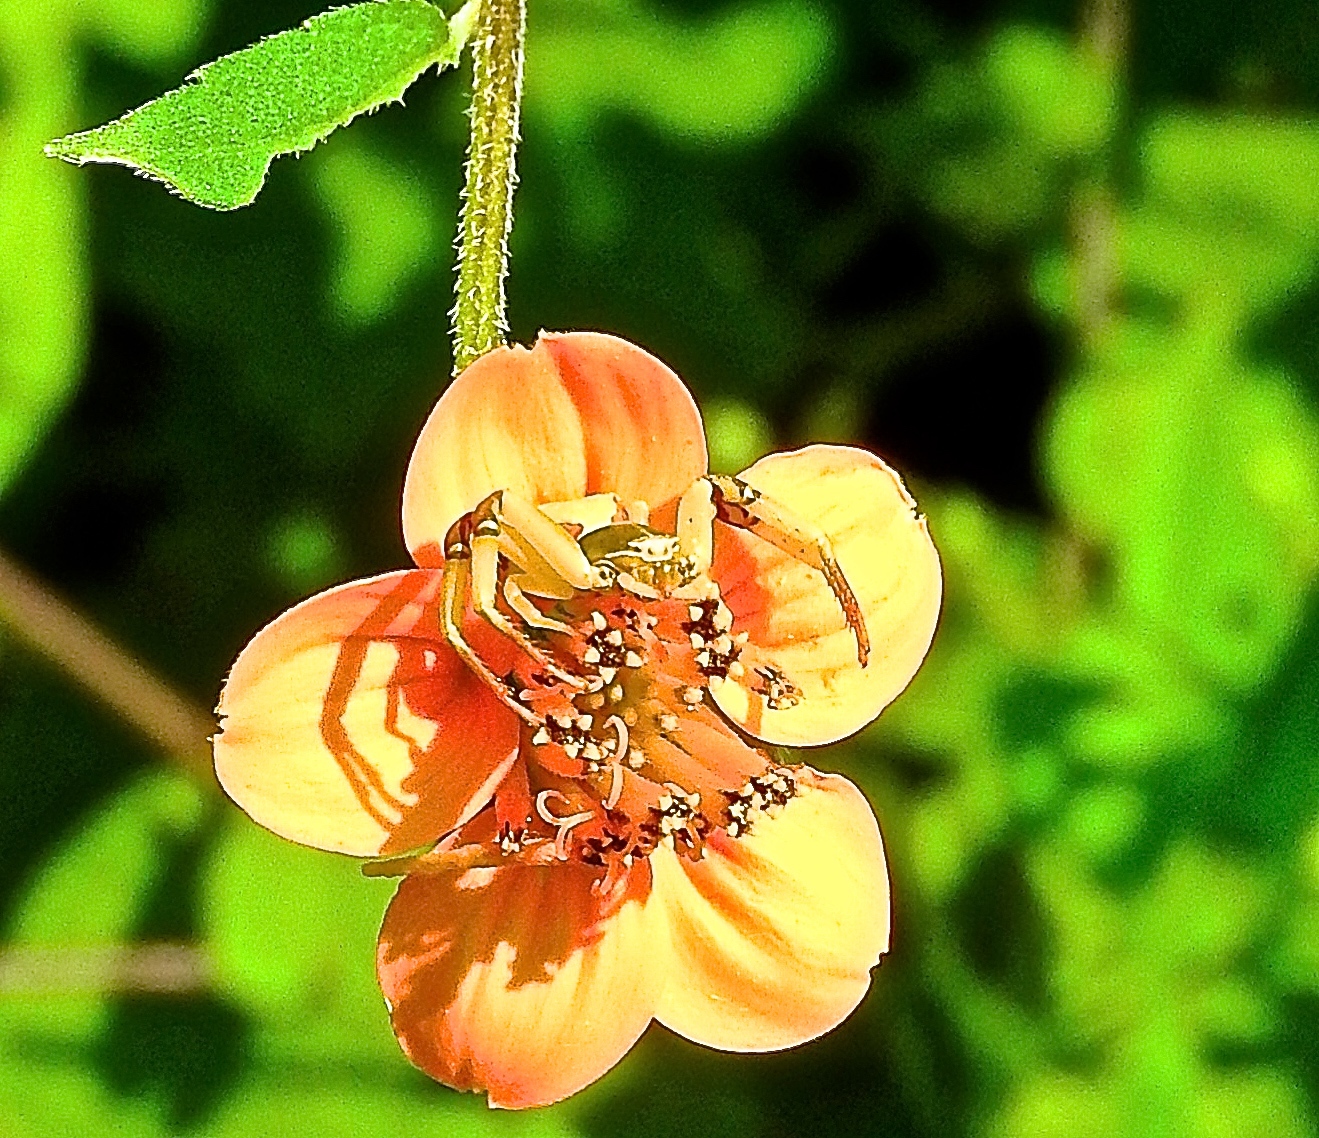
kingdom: Animalia
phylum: Arthropoda
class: Arachnida
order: Araneae
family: Thomisidae
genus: Misumenoides
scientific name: Misumenoides
